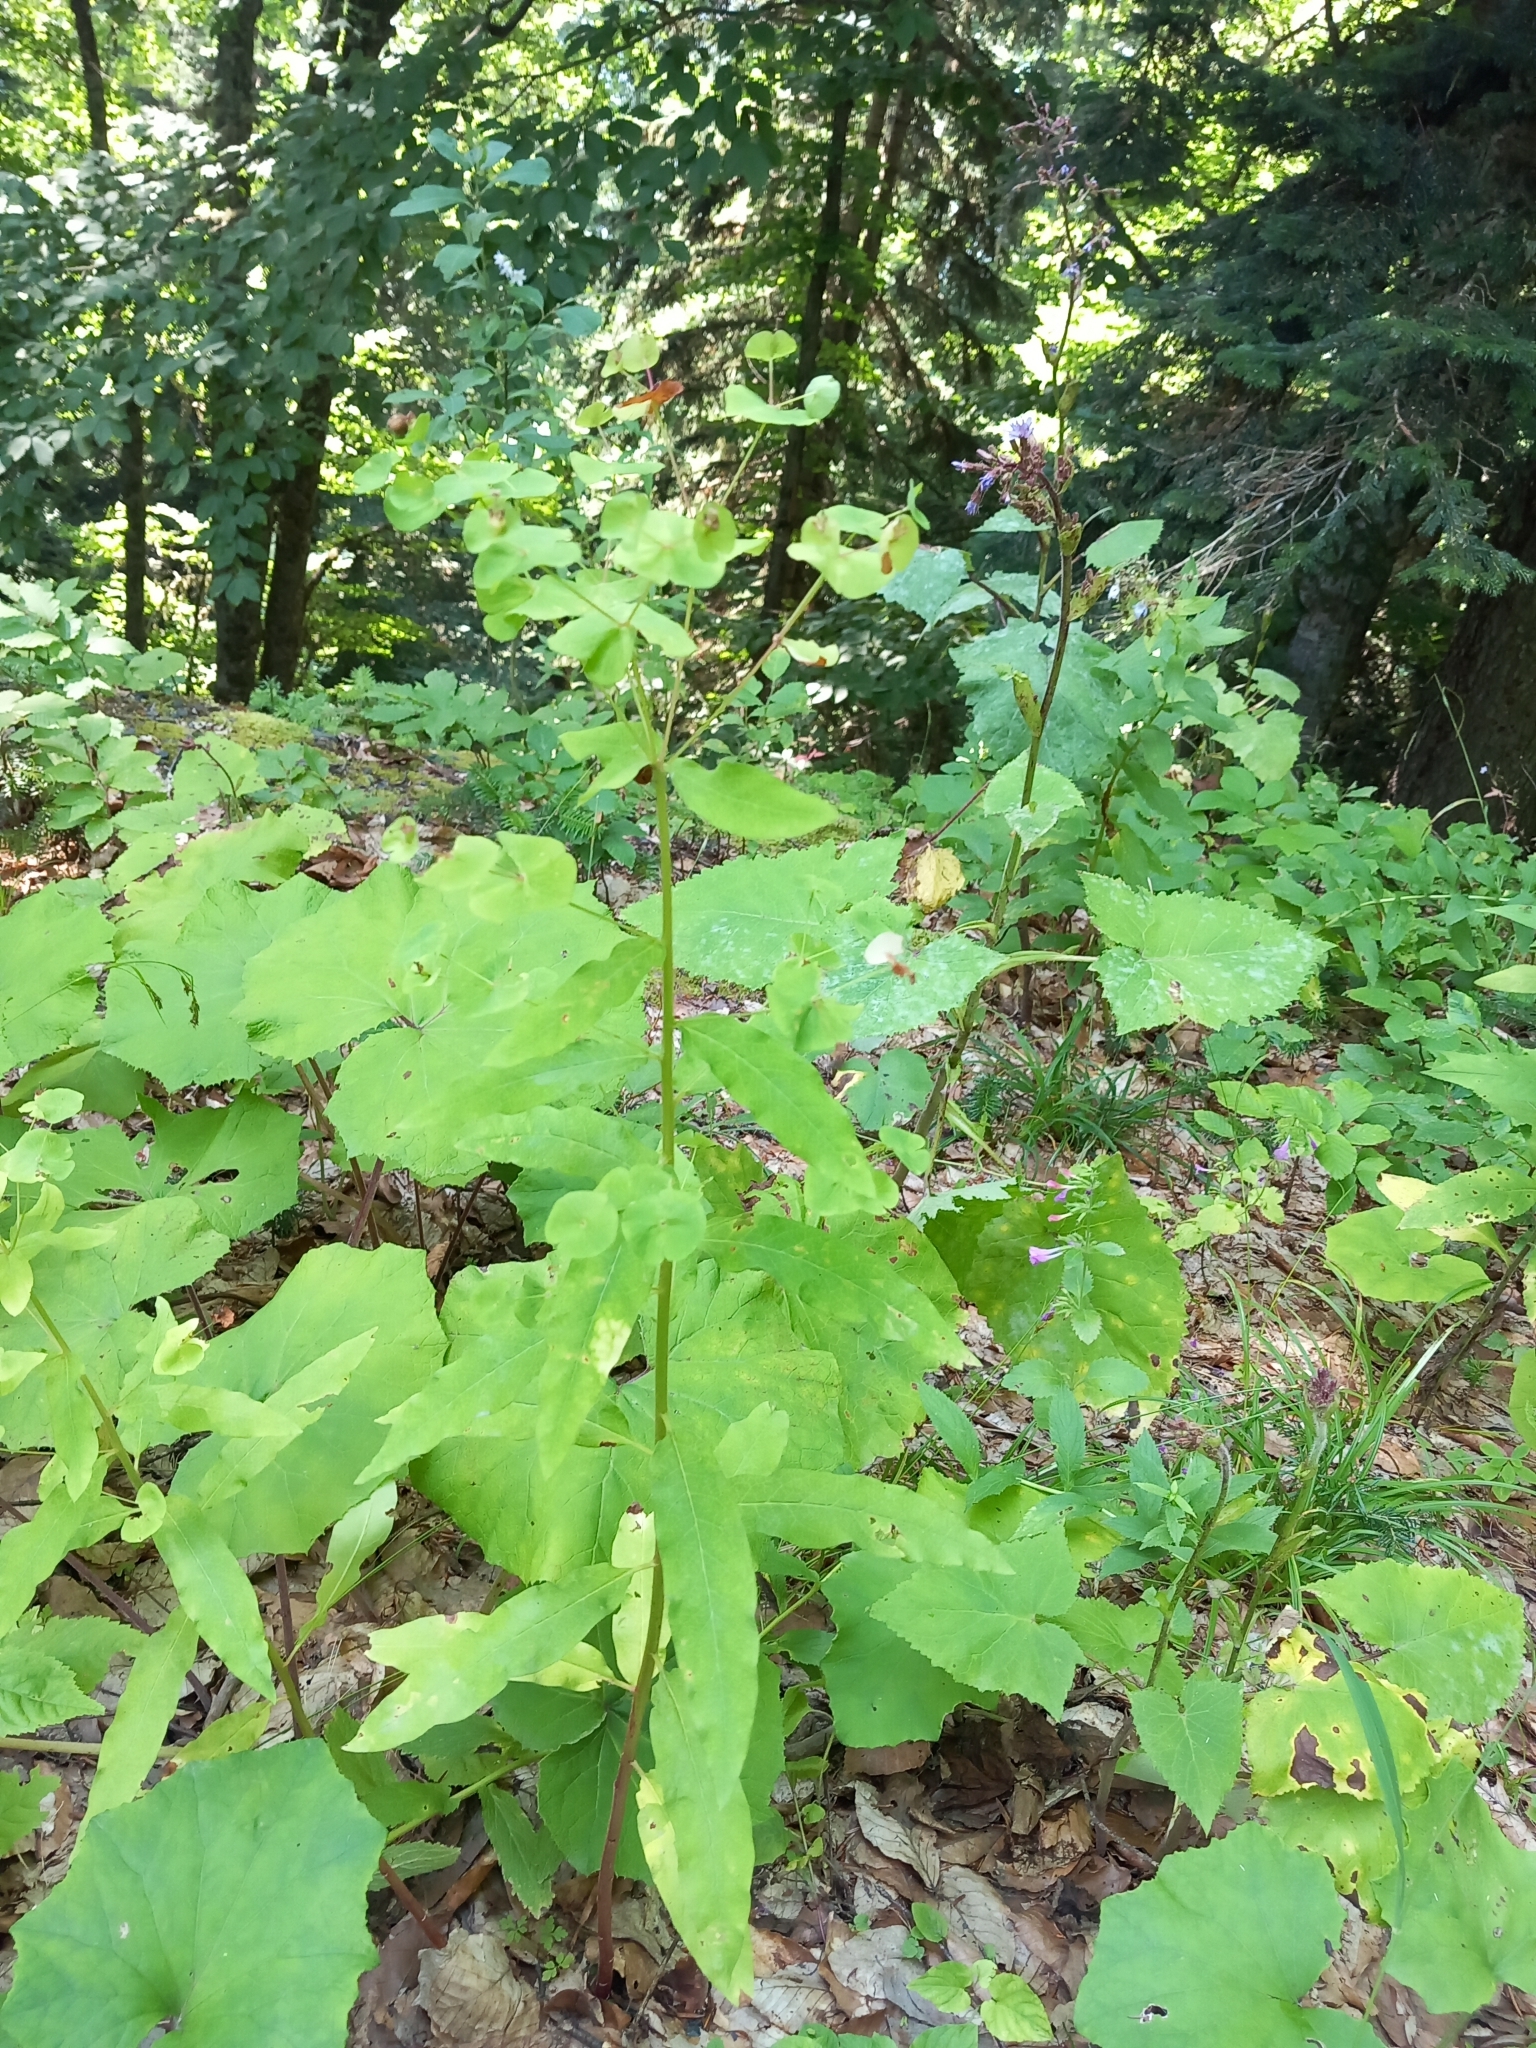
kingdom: Plantae
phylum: Tracheophyta
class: Magnoliopsida
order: Malpighiales
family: Euphorbiaceae
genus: Euphorbia
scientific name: Euphorbia oblongifolia
